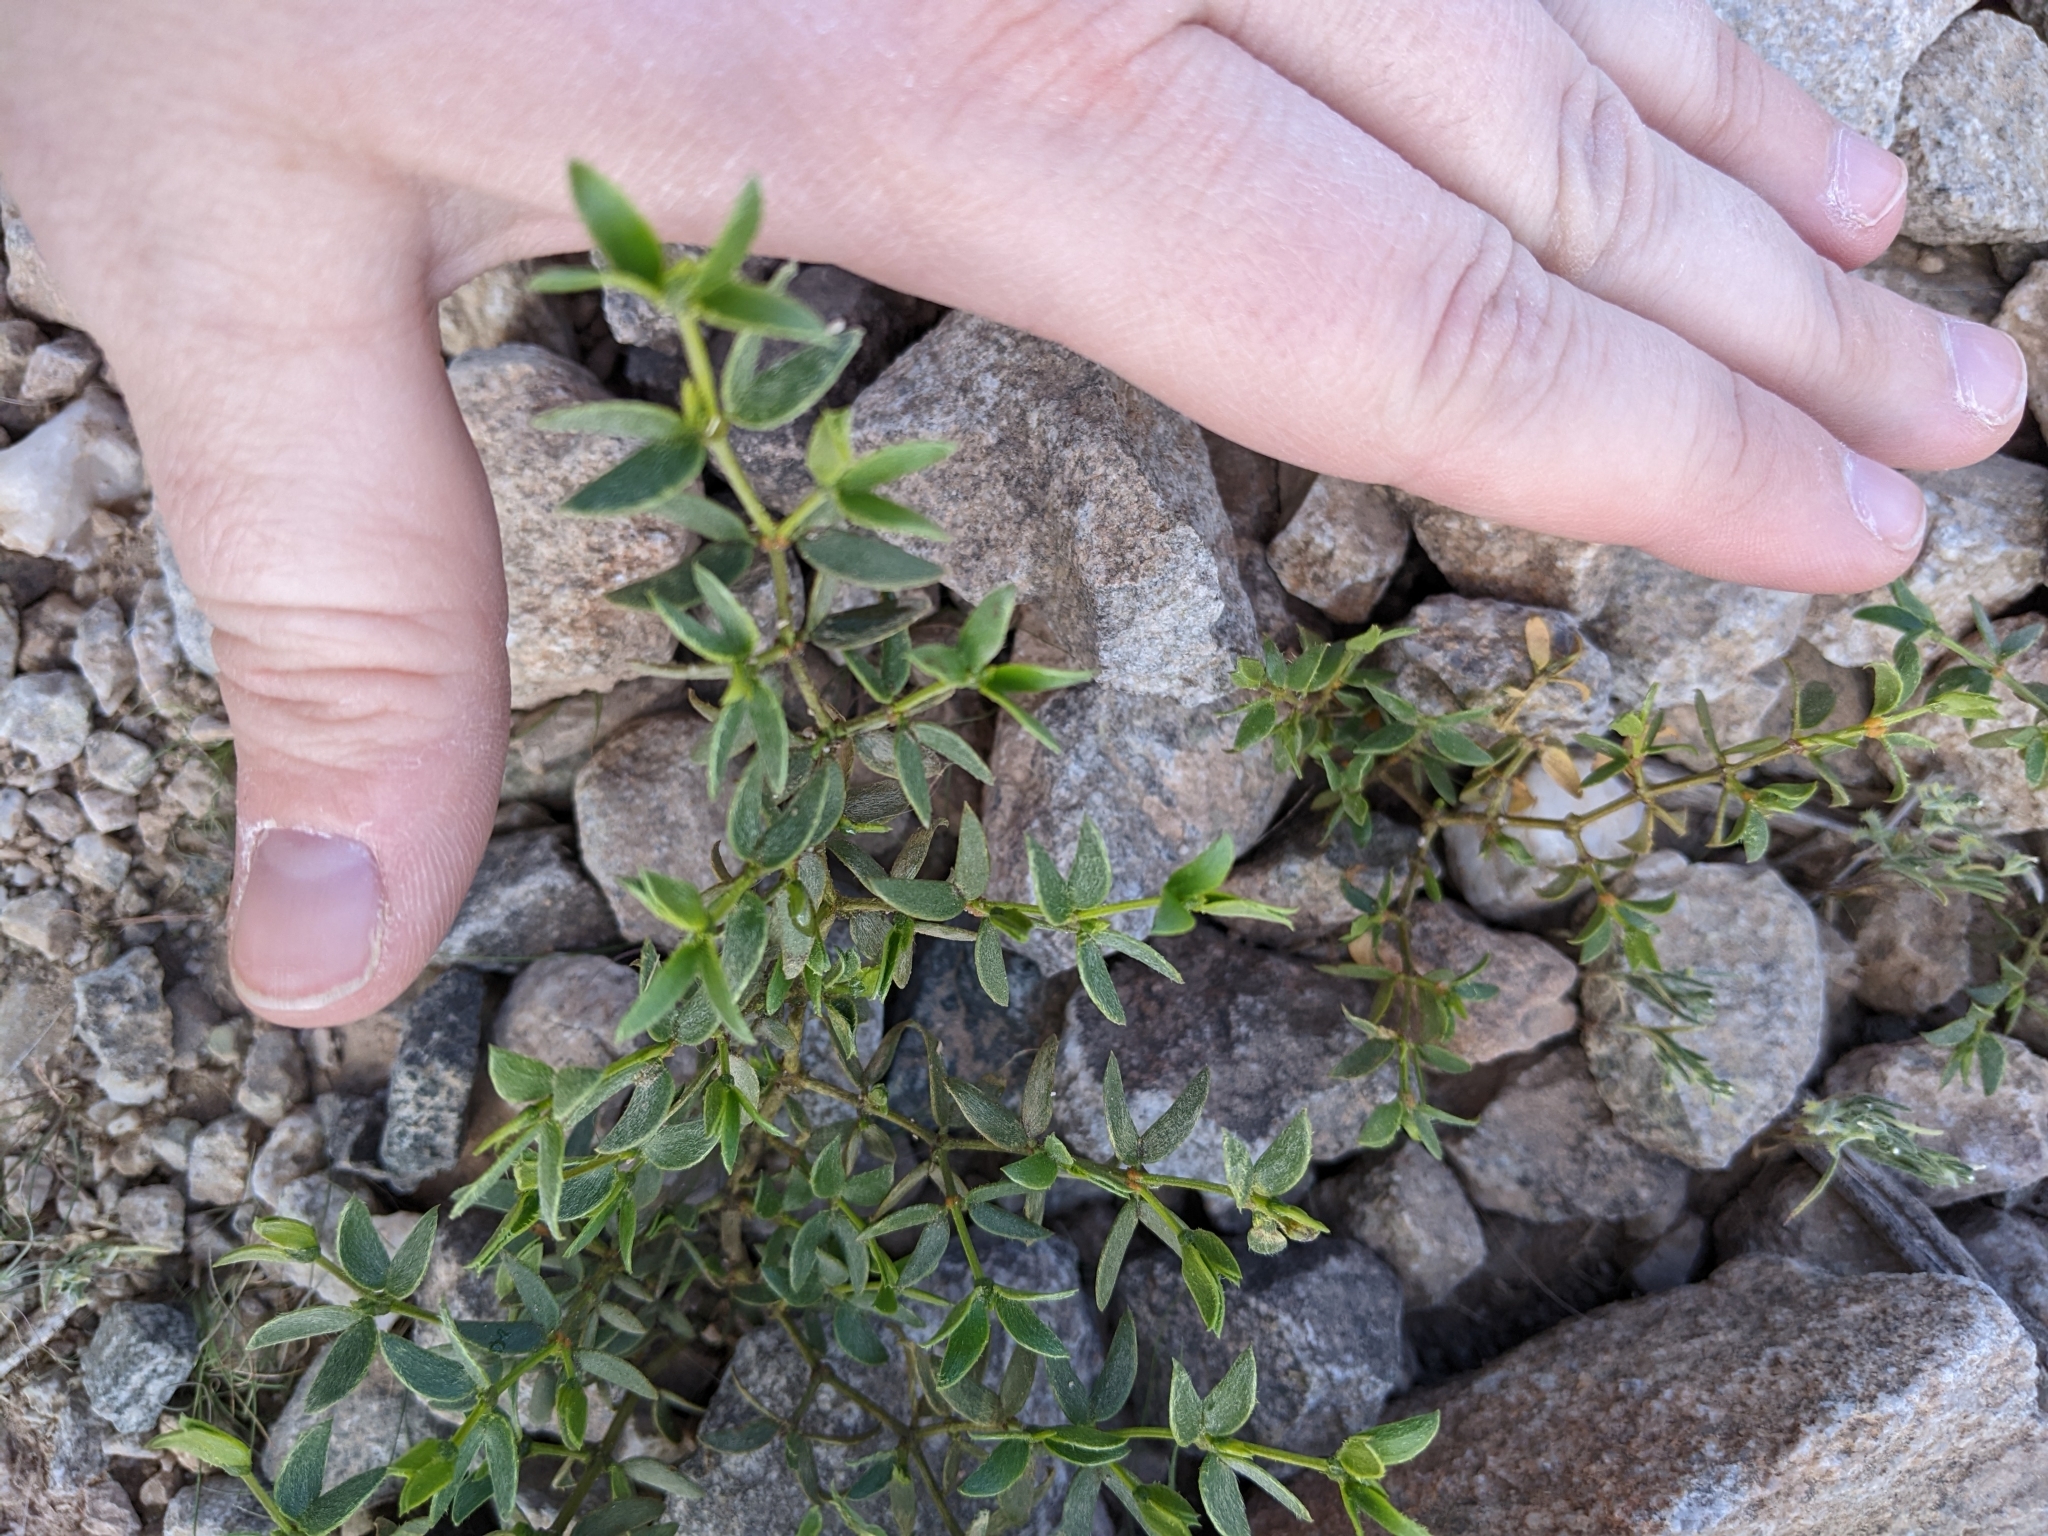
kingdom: Plantae
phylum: Tracheophyta
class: Magnoliopsida
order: Zygophyllales
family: Zygophyllaceae
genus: Larrea
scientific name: Larrea tridentata
